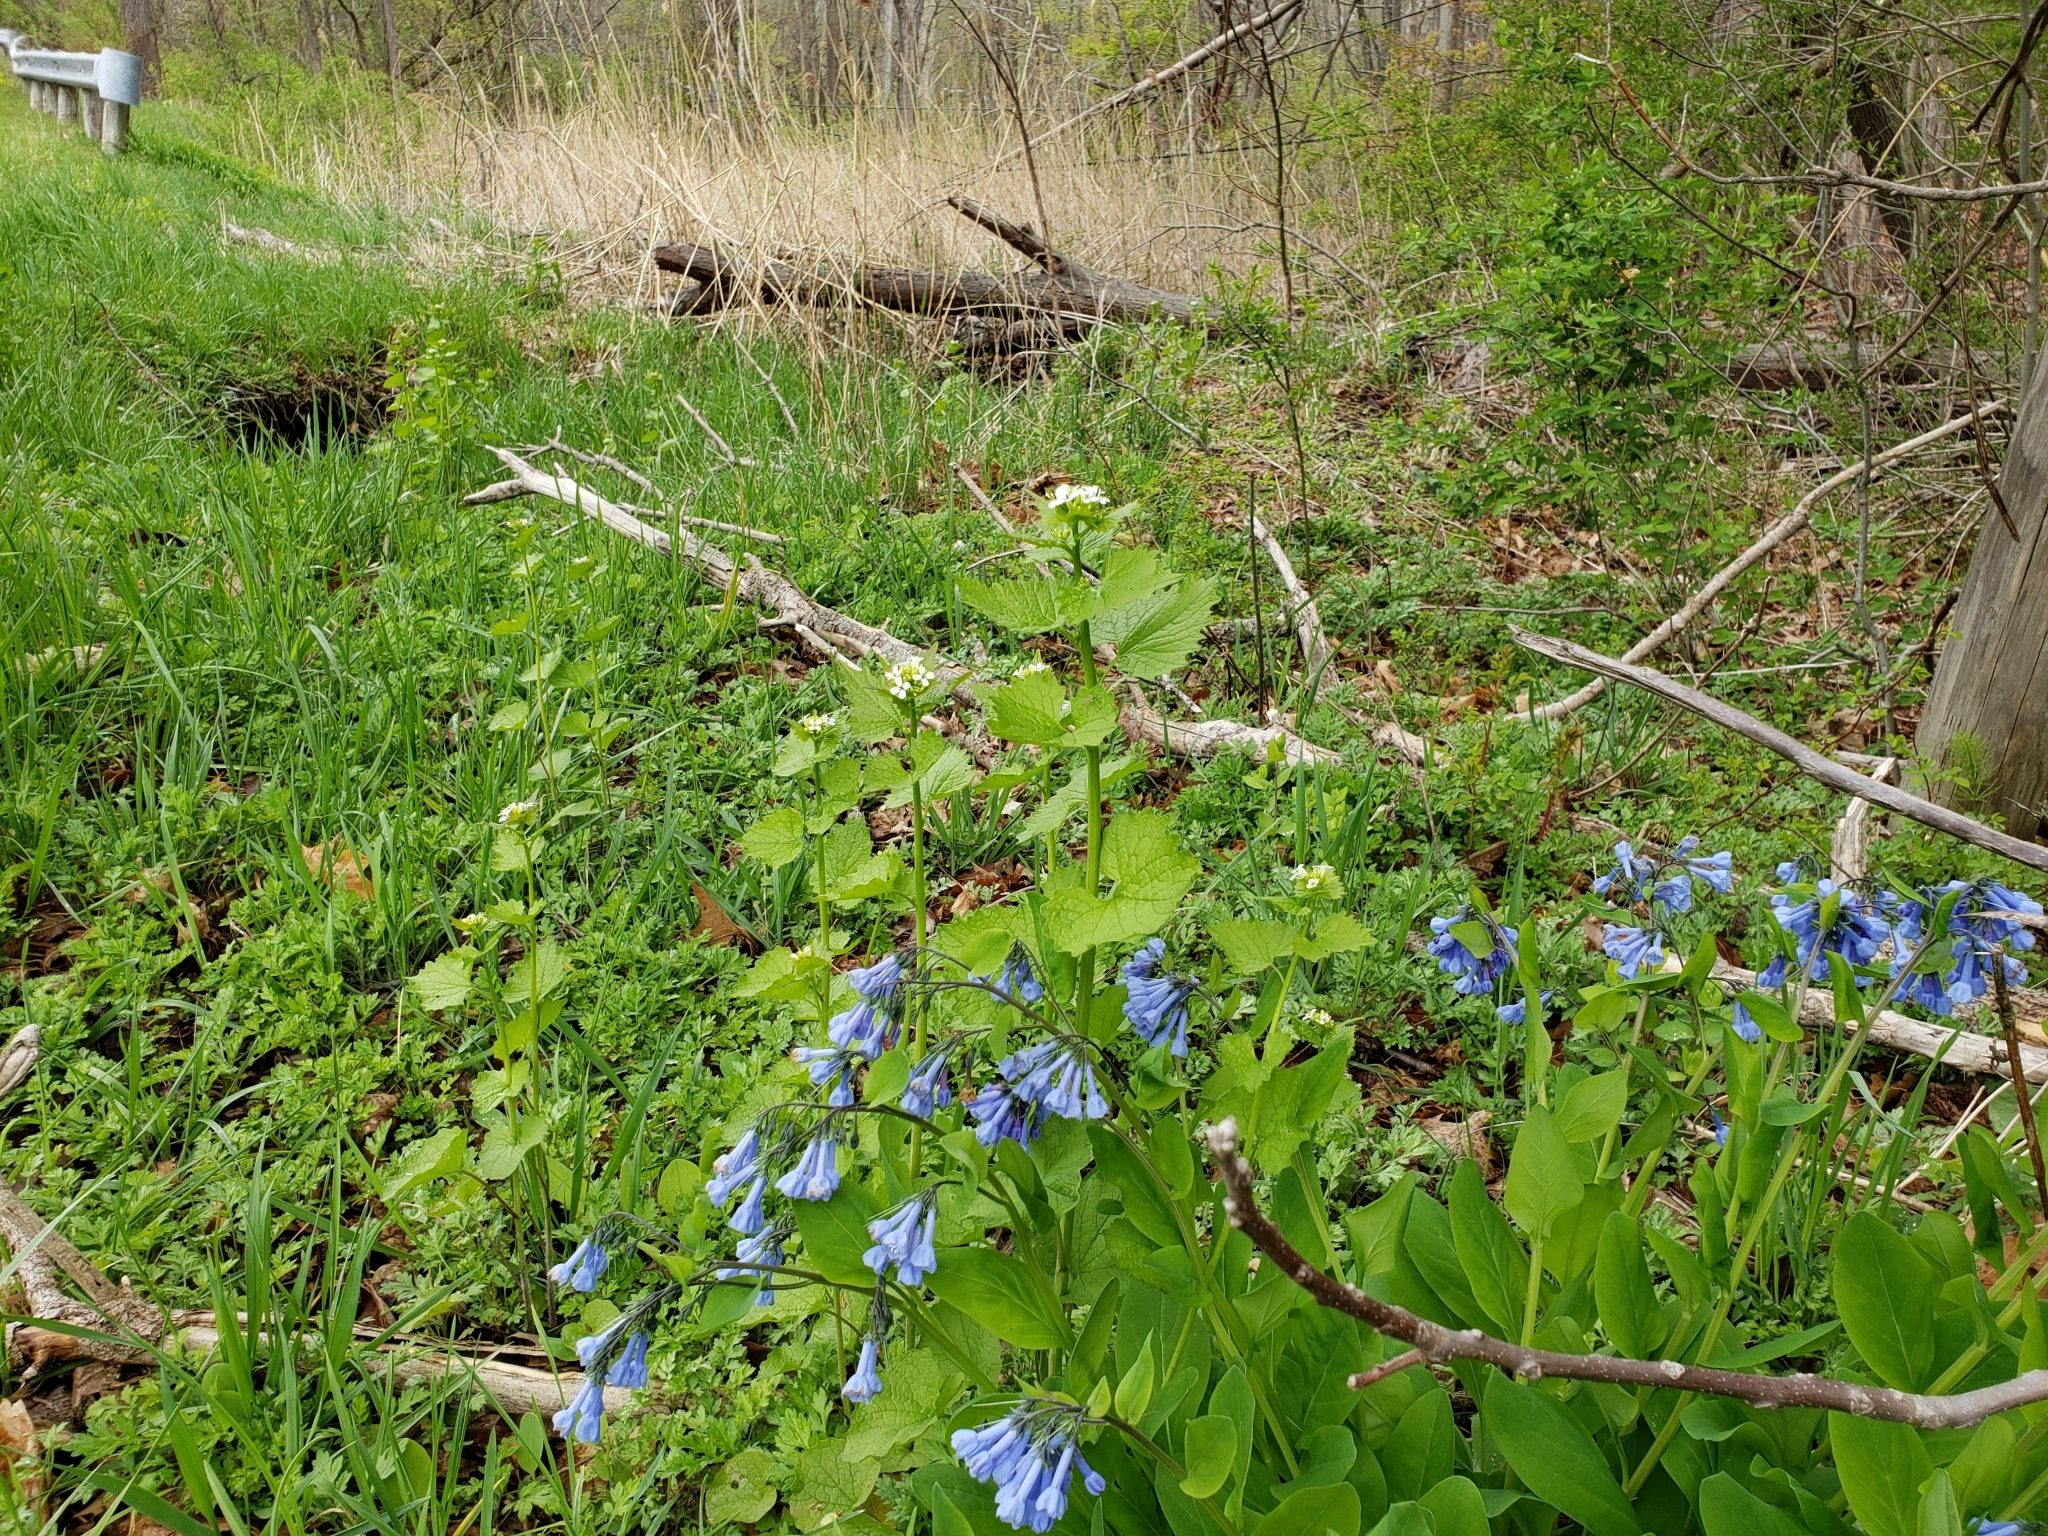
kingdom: Plantae
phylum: Tracheophyta
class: Magnoliopsida
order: Boraginales
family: Boraginaceae
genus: Mertensia
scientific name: Mertensia virginica
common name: Virginia bluebells
